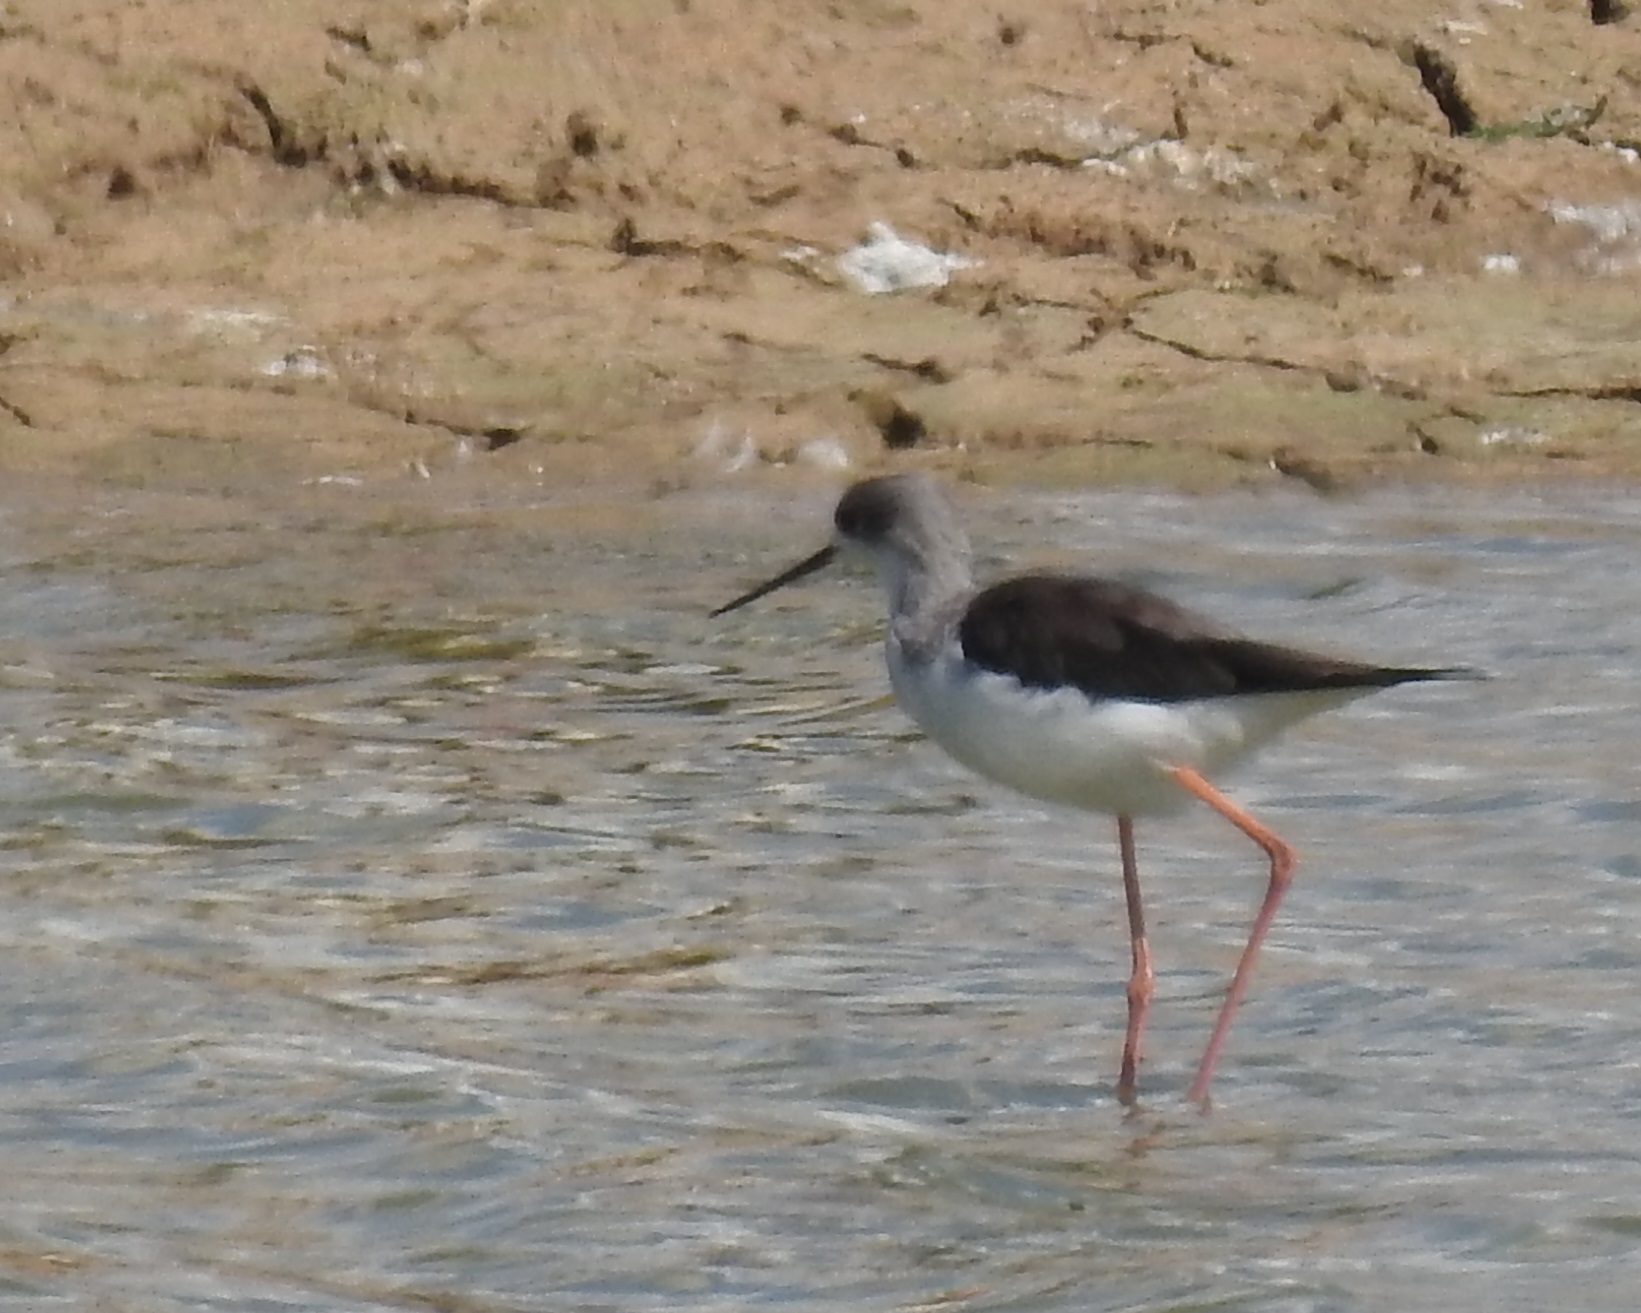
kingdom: Animalia
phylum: Chordata
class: Aves
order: Charadriiformes
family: Recurvirostridae
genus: Himantopus
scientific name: Himantopus himantopus
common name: Black-winged stilt
